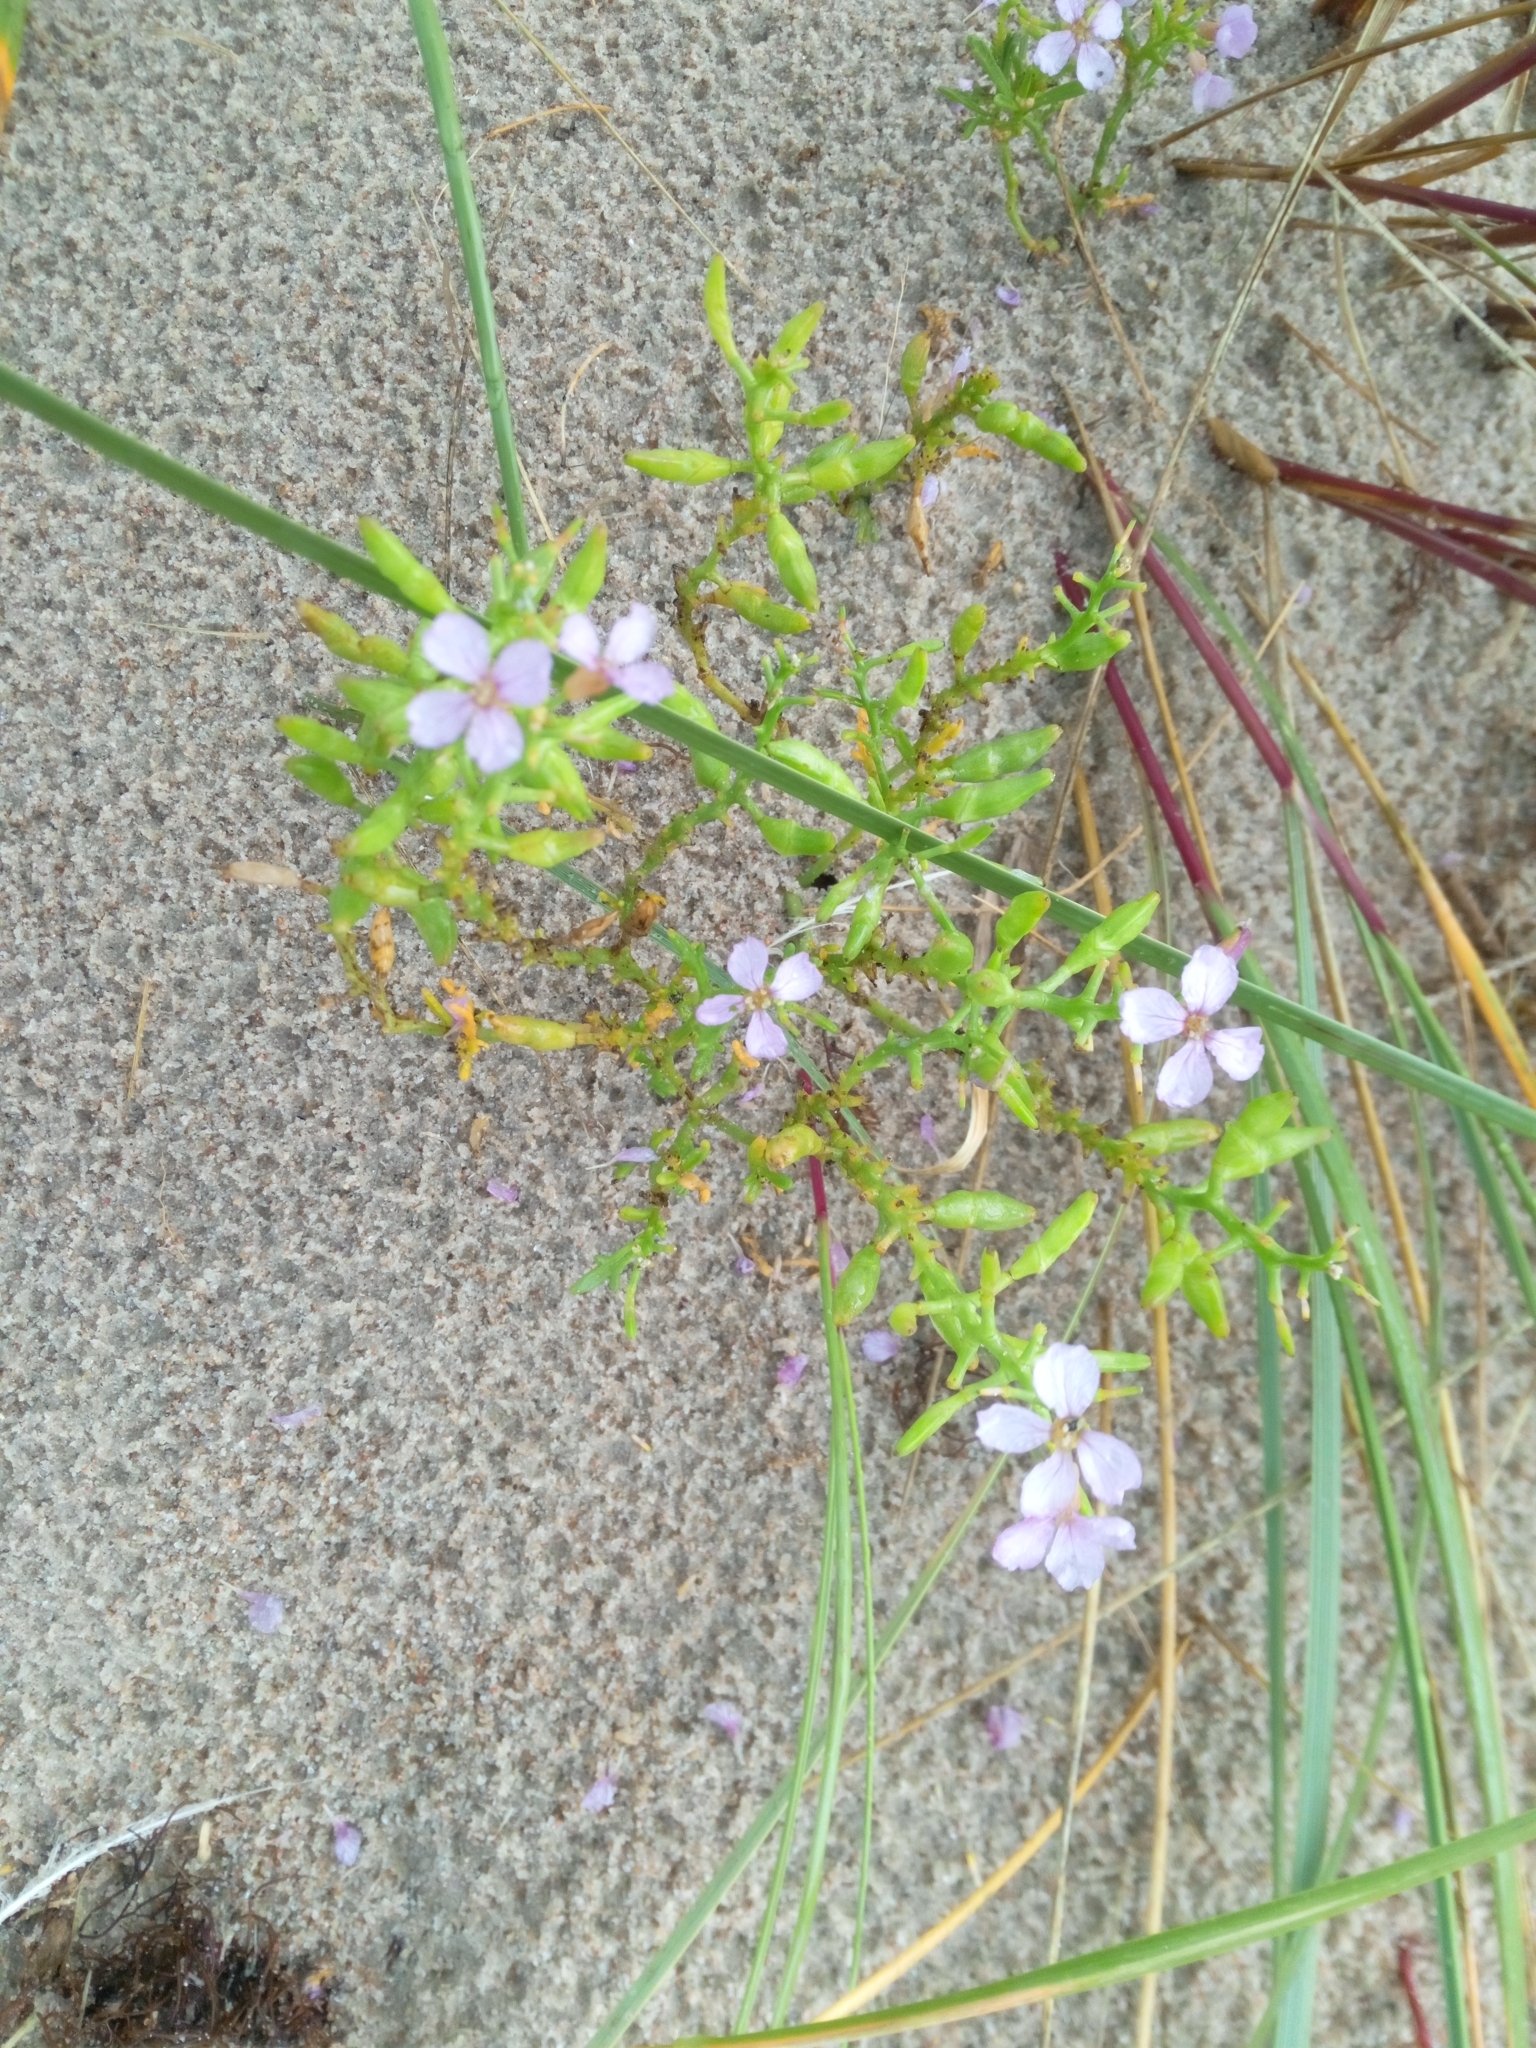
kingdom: Plantae
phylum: Tracheophyta
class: Magnoliopsida
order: Brassicales
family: Brassicaceae
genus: Cakile
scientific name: Cakile maritima
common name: Sea rocket
